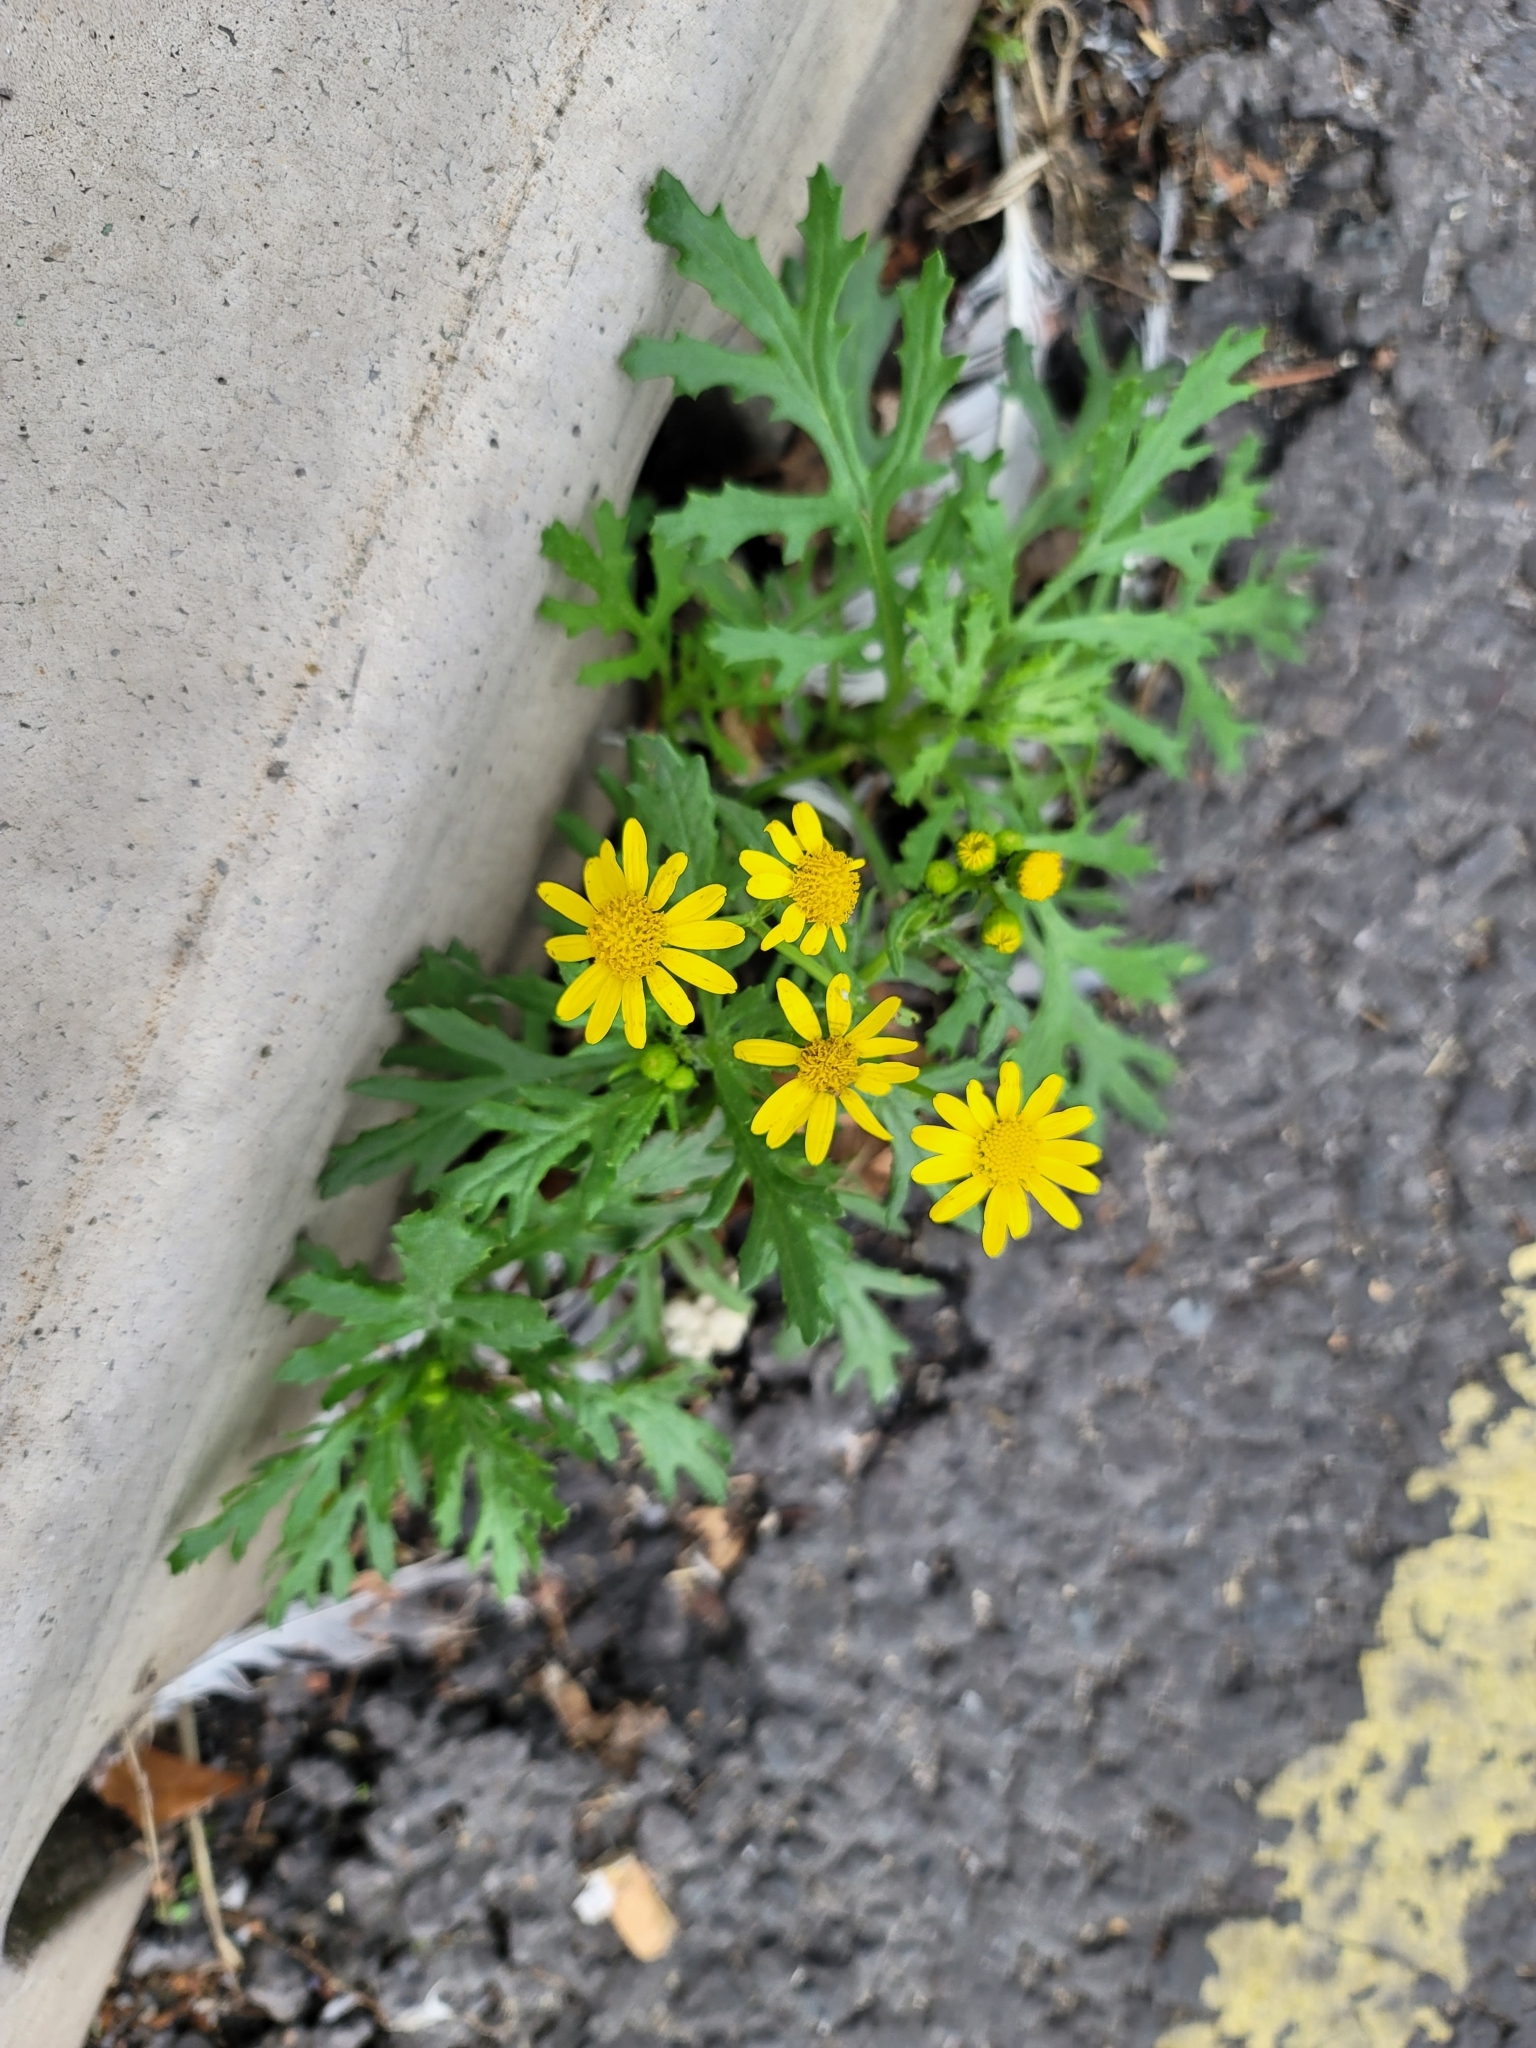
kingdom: Plantae
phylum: Tracheophyta
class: Magnoliopsida
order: Asterales
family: Asteraceae
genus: Senecio
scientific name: Senecio squalidus
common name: Oxford ragwort
